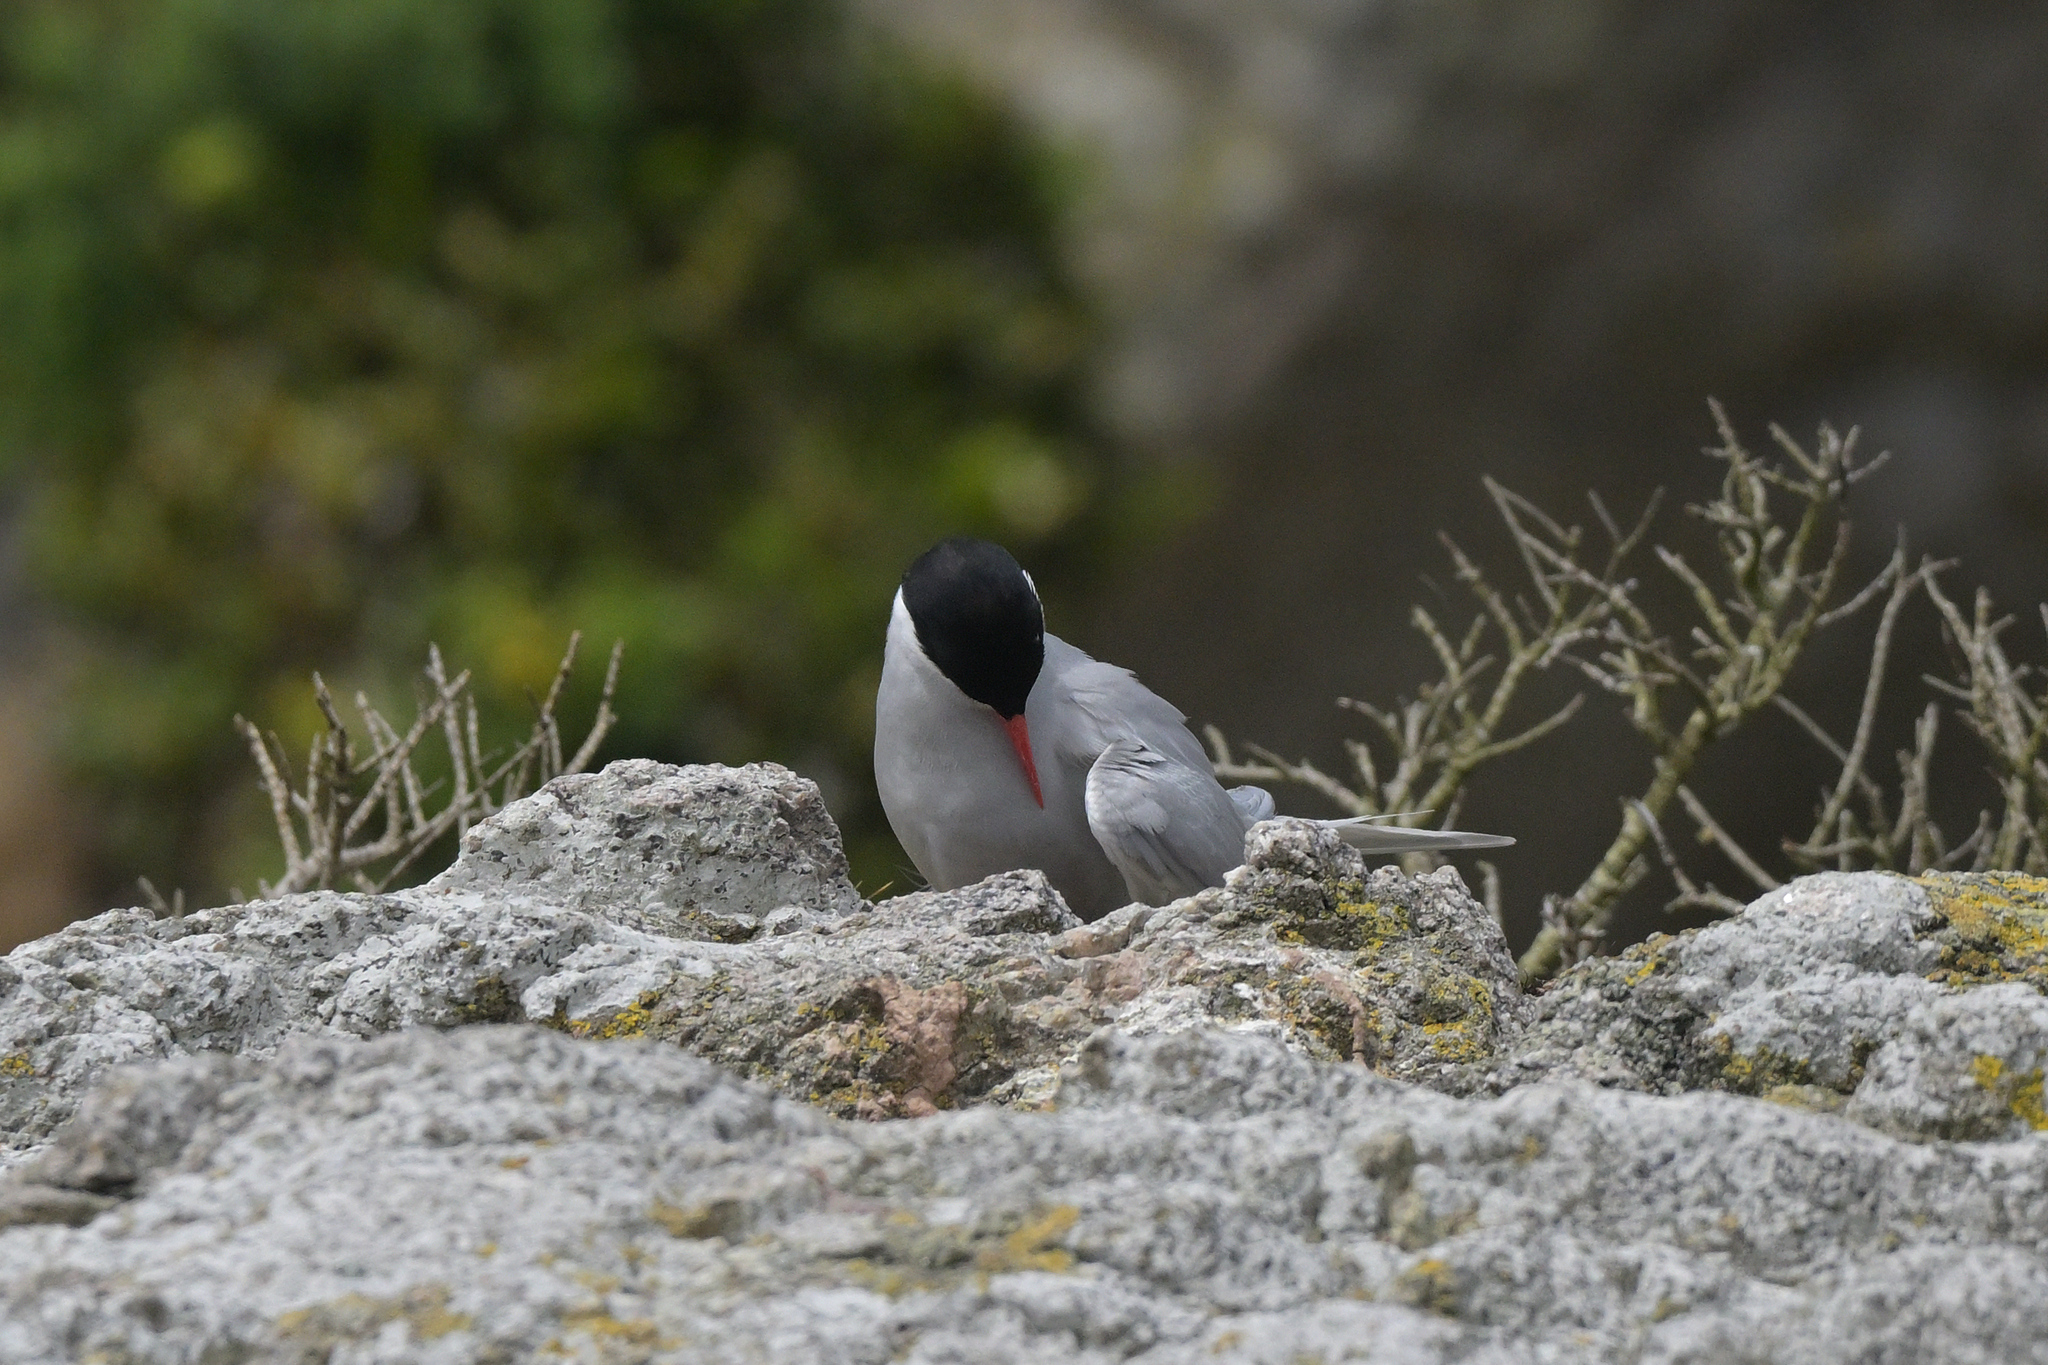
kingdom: Animalia
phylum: Chordata
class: Aves
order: Charadriiformes
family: Laridae
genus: Sterna
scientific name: Sterna vittata
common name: Antarctic tern
